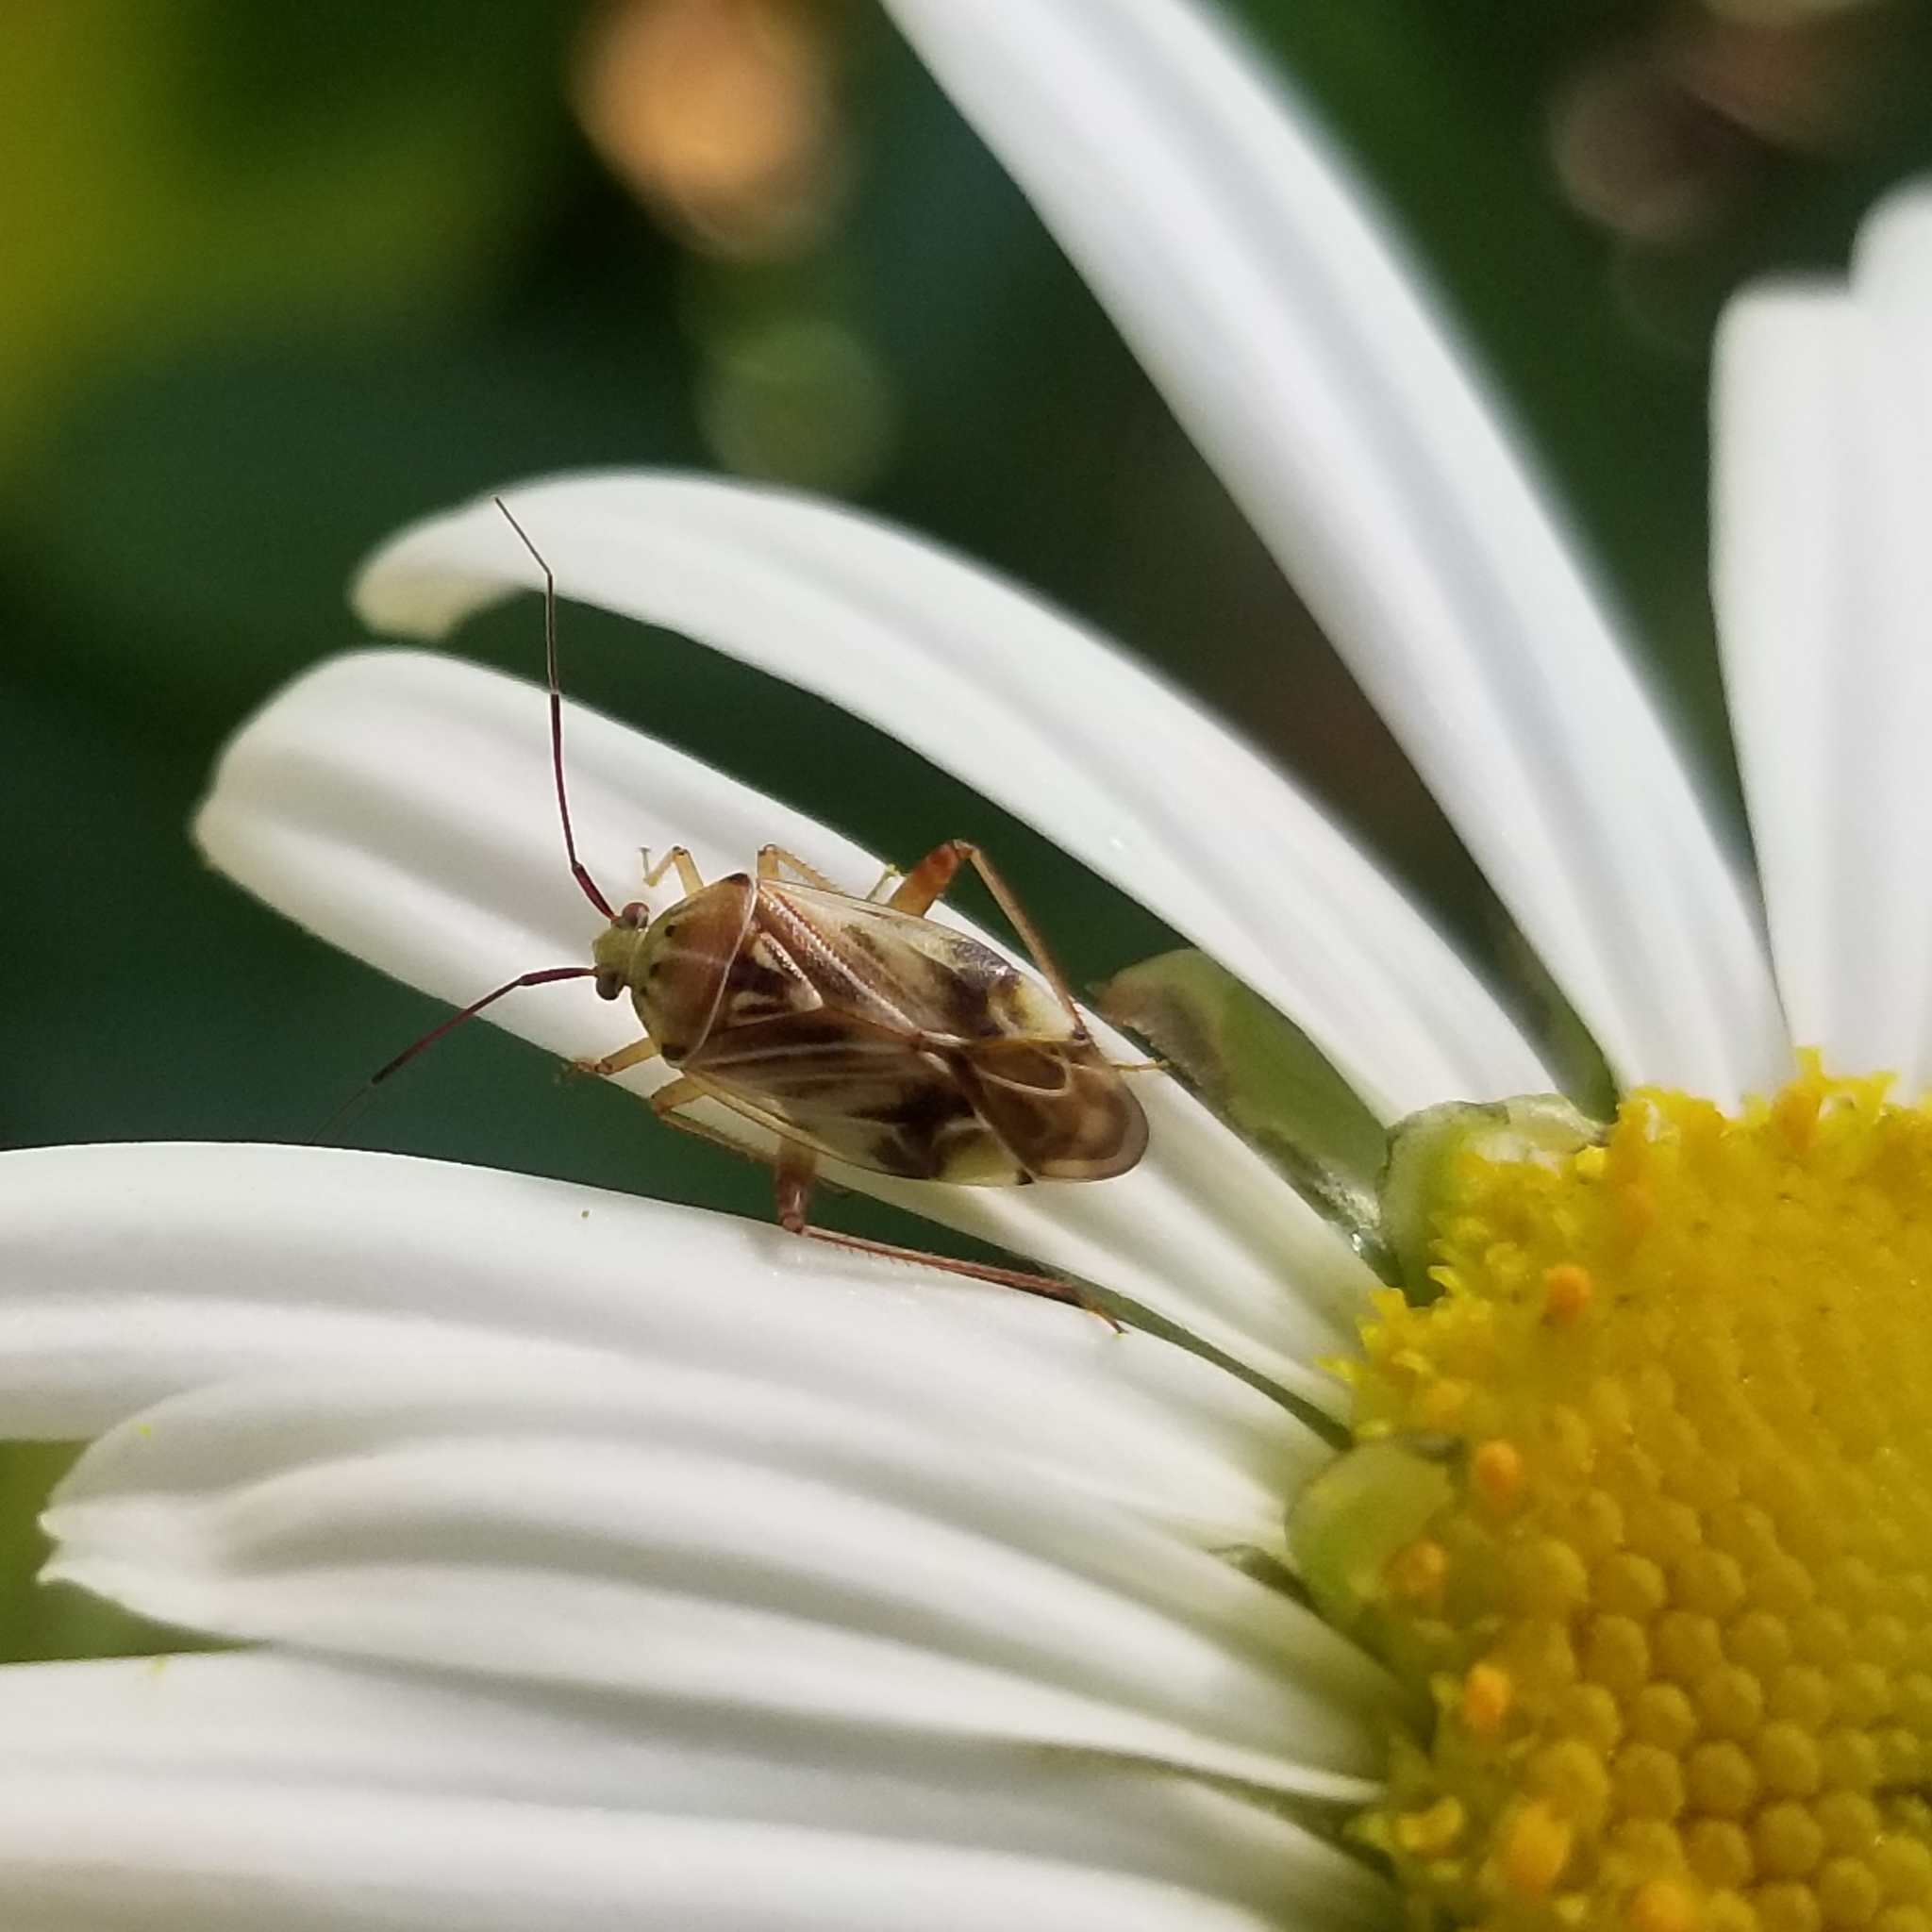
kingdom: Animalia
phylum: Arthropoda
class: Insecta
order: Hemiptera
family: Miridae
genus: Lygus
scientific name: Lygus lineolaris
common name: North american tarnished plant bug
